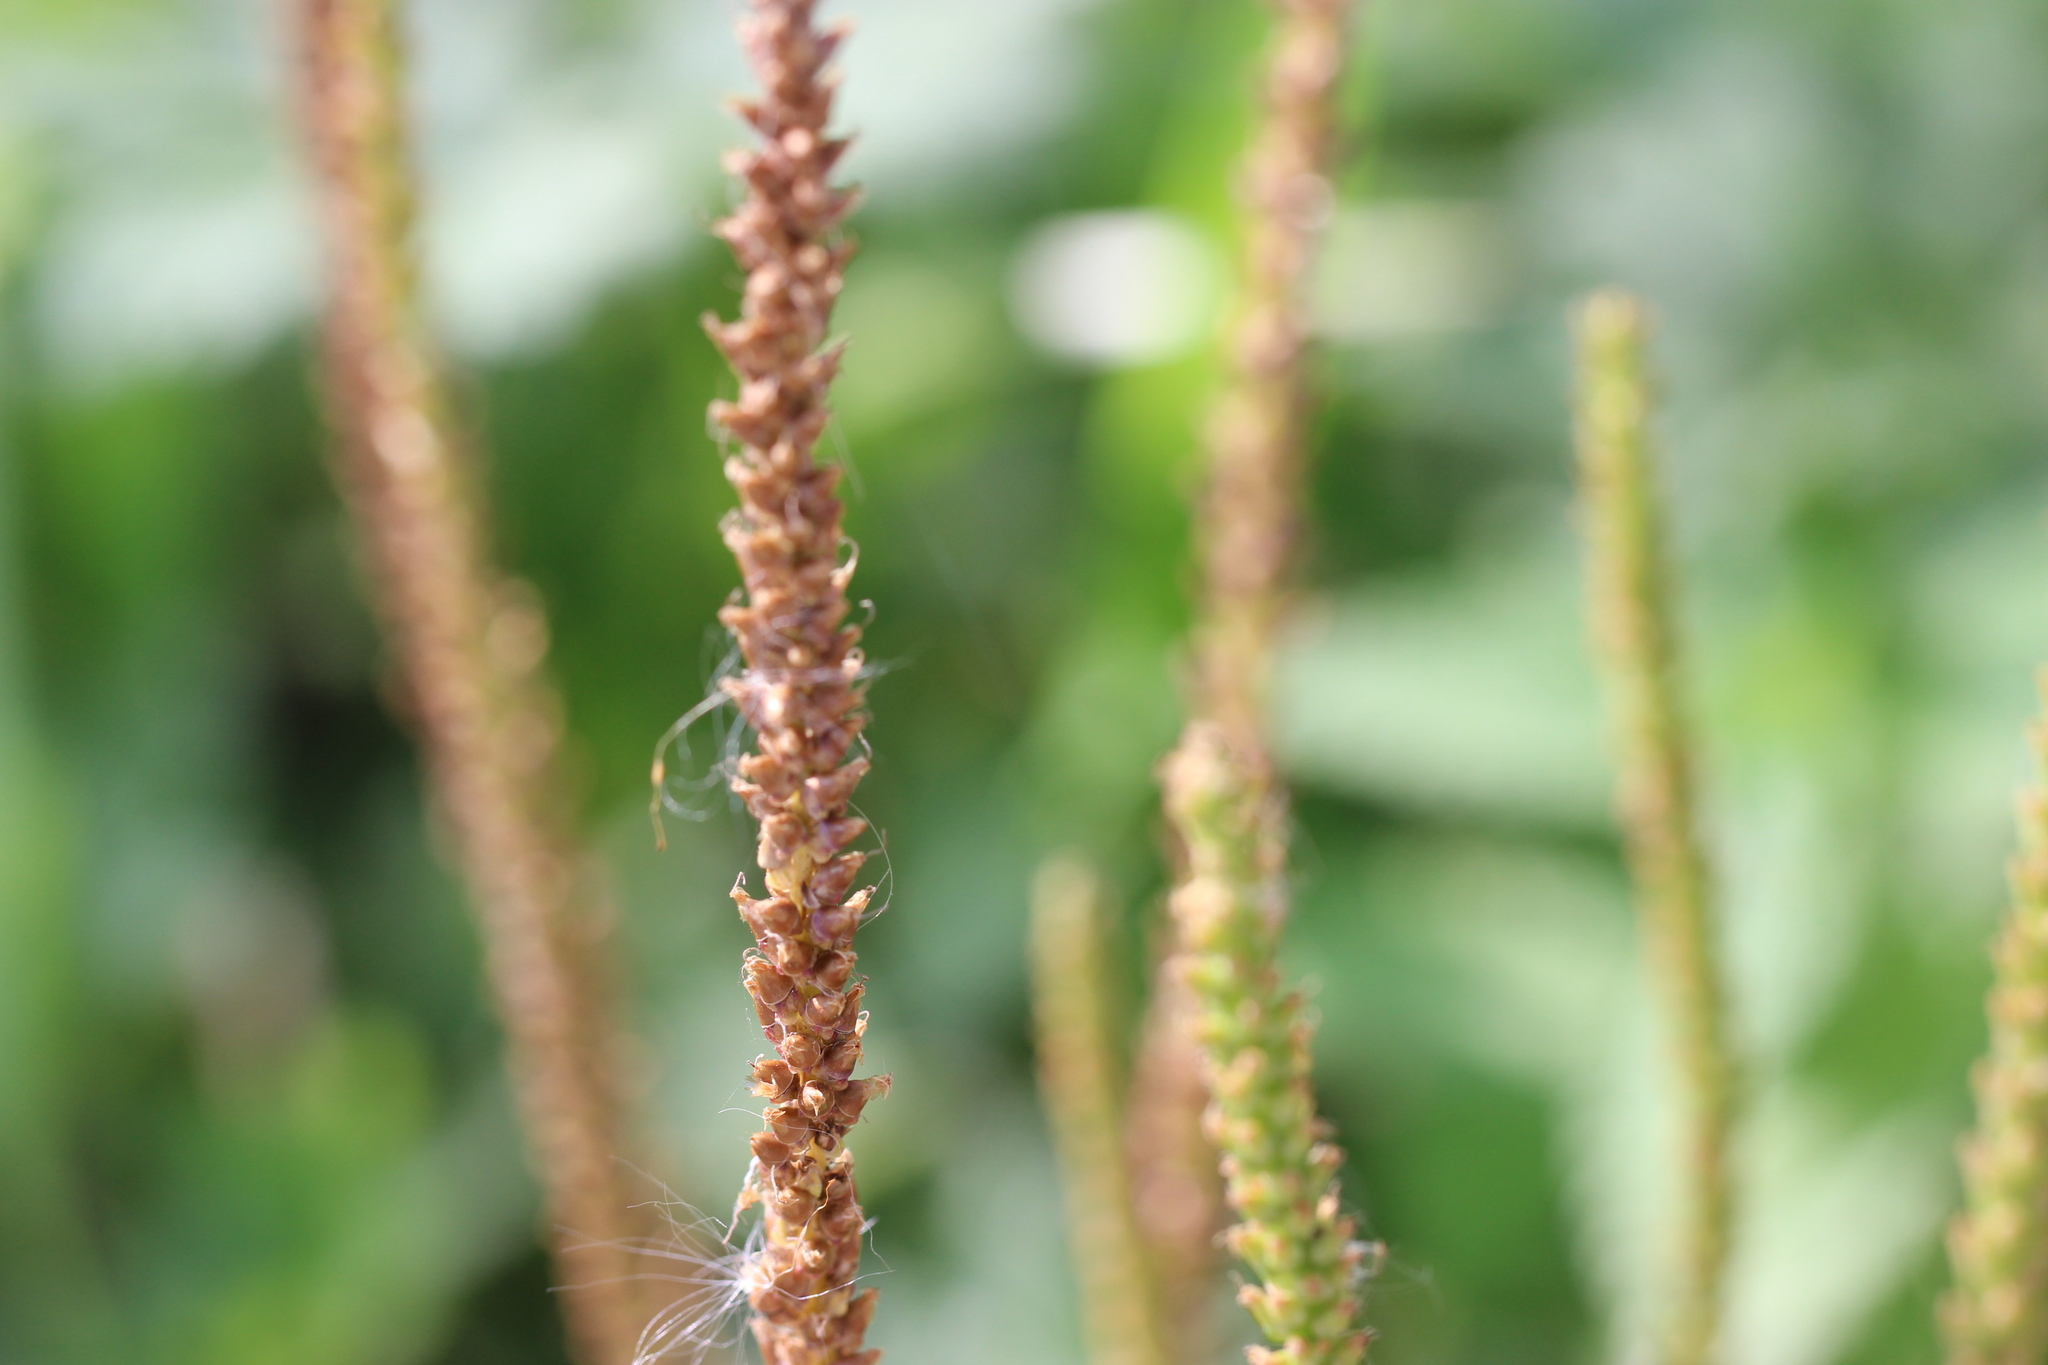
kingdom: Plantae
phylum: Tracheophyta
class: Magnoliopsida
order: Lamiales
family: Plantaginaceae
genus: Plantago
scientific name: Plantago major
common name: Common plantain
